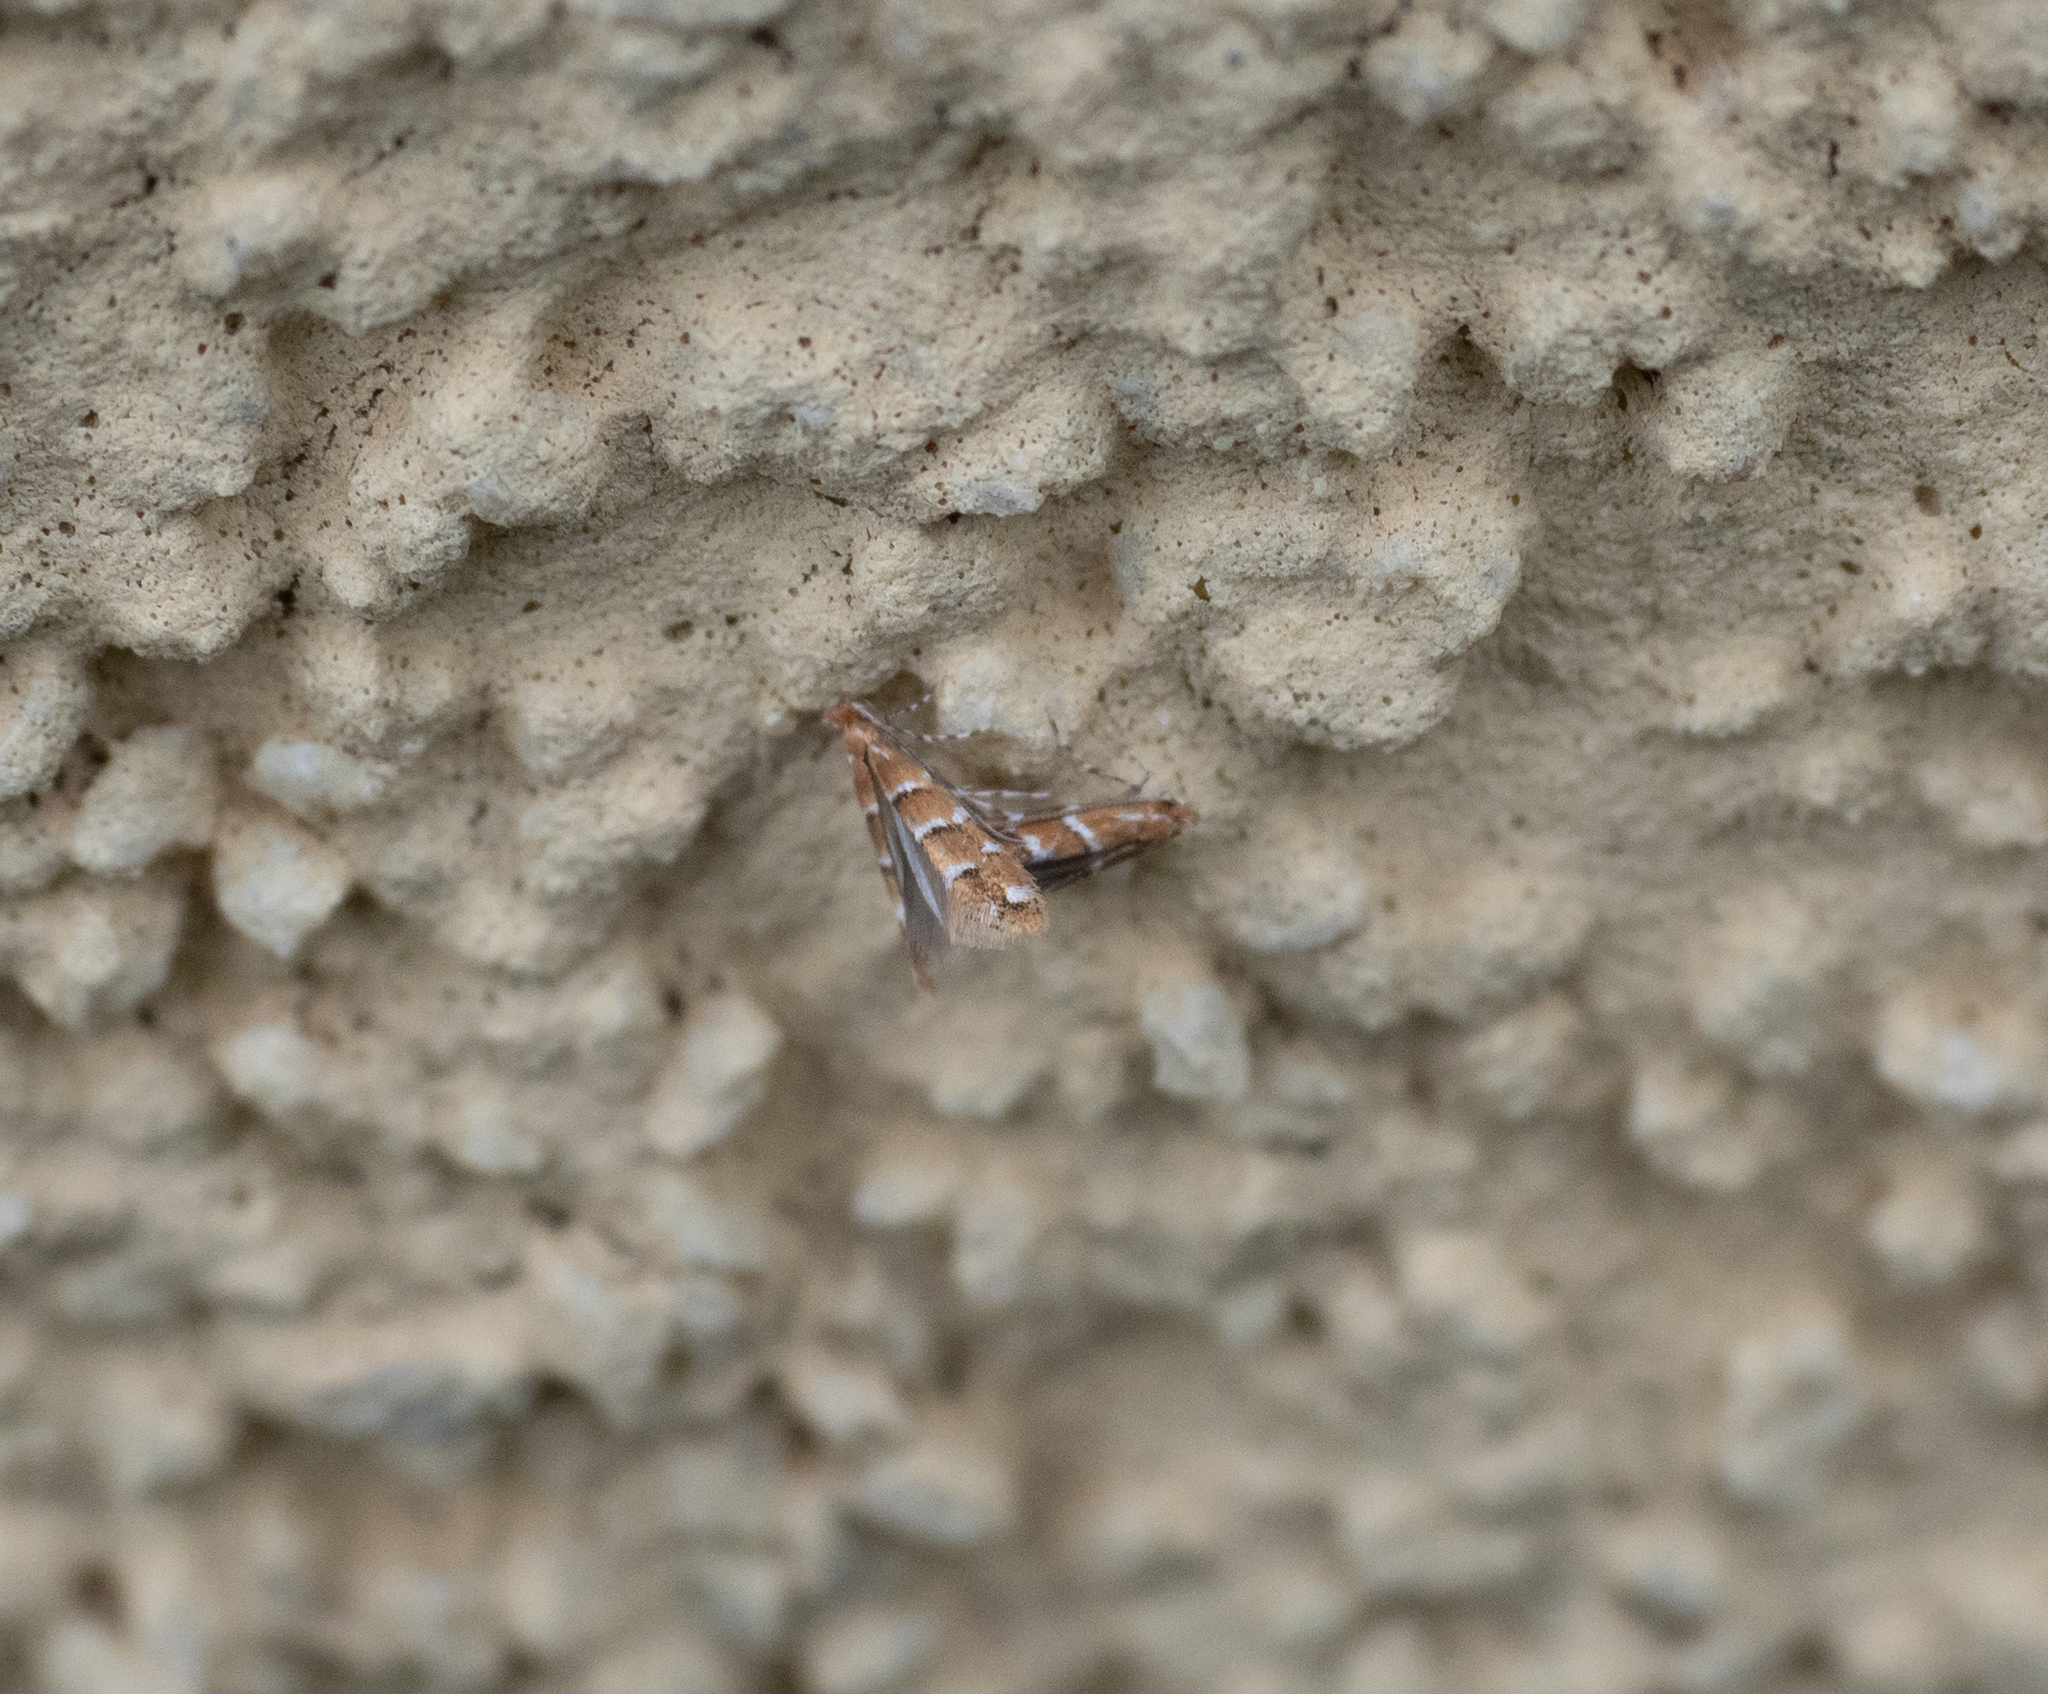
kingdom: Animalia
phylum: Arthropoda
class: Insecta
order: Lepidoptera
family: Gracillariidae
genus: Cameraria
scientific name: Cameraria ohridella
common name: Horse-chestnut leaf-miner
